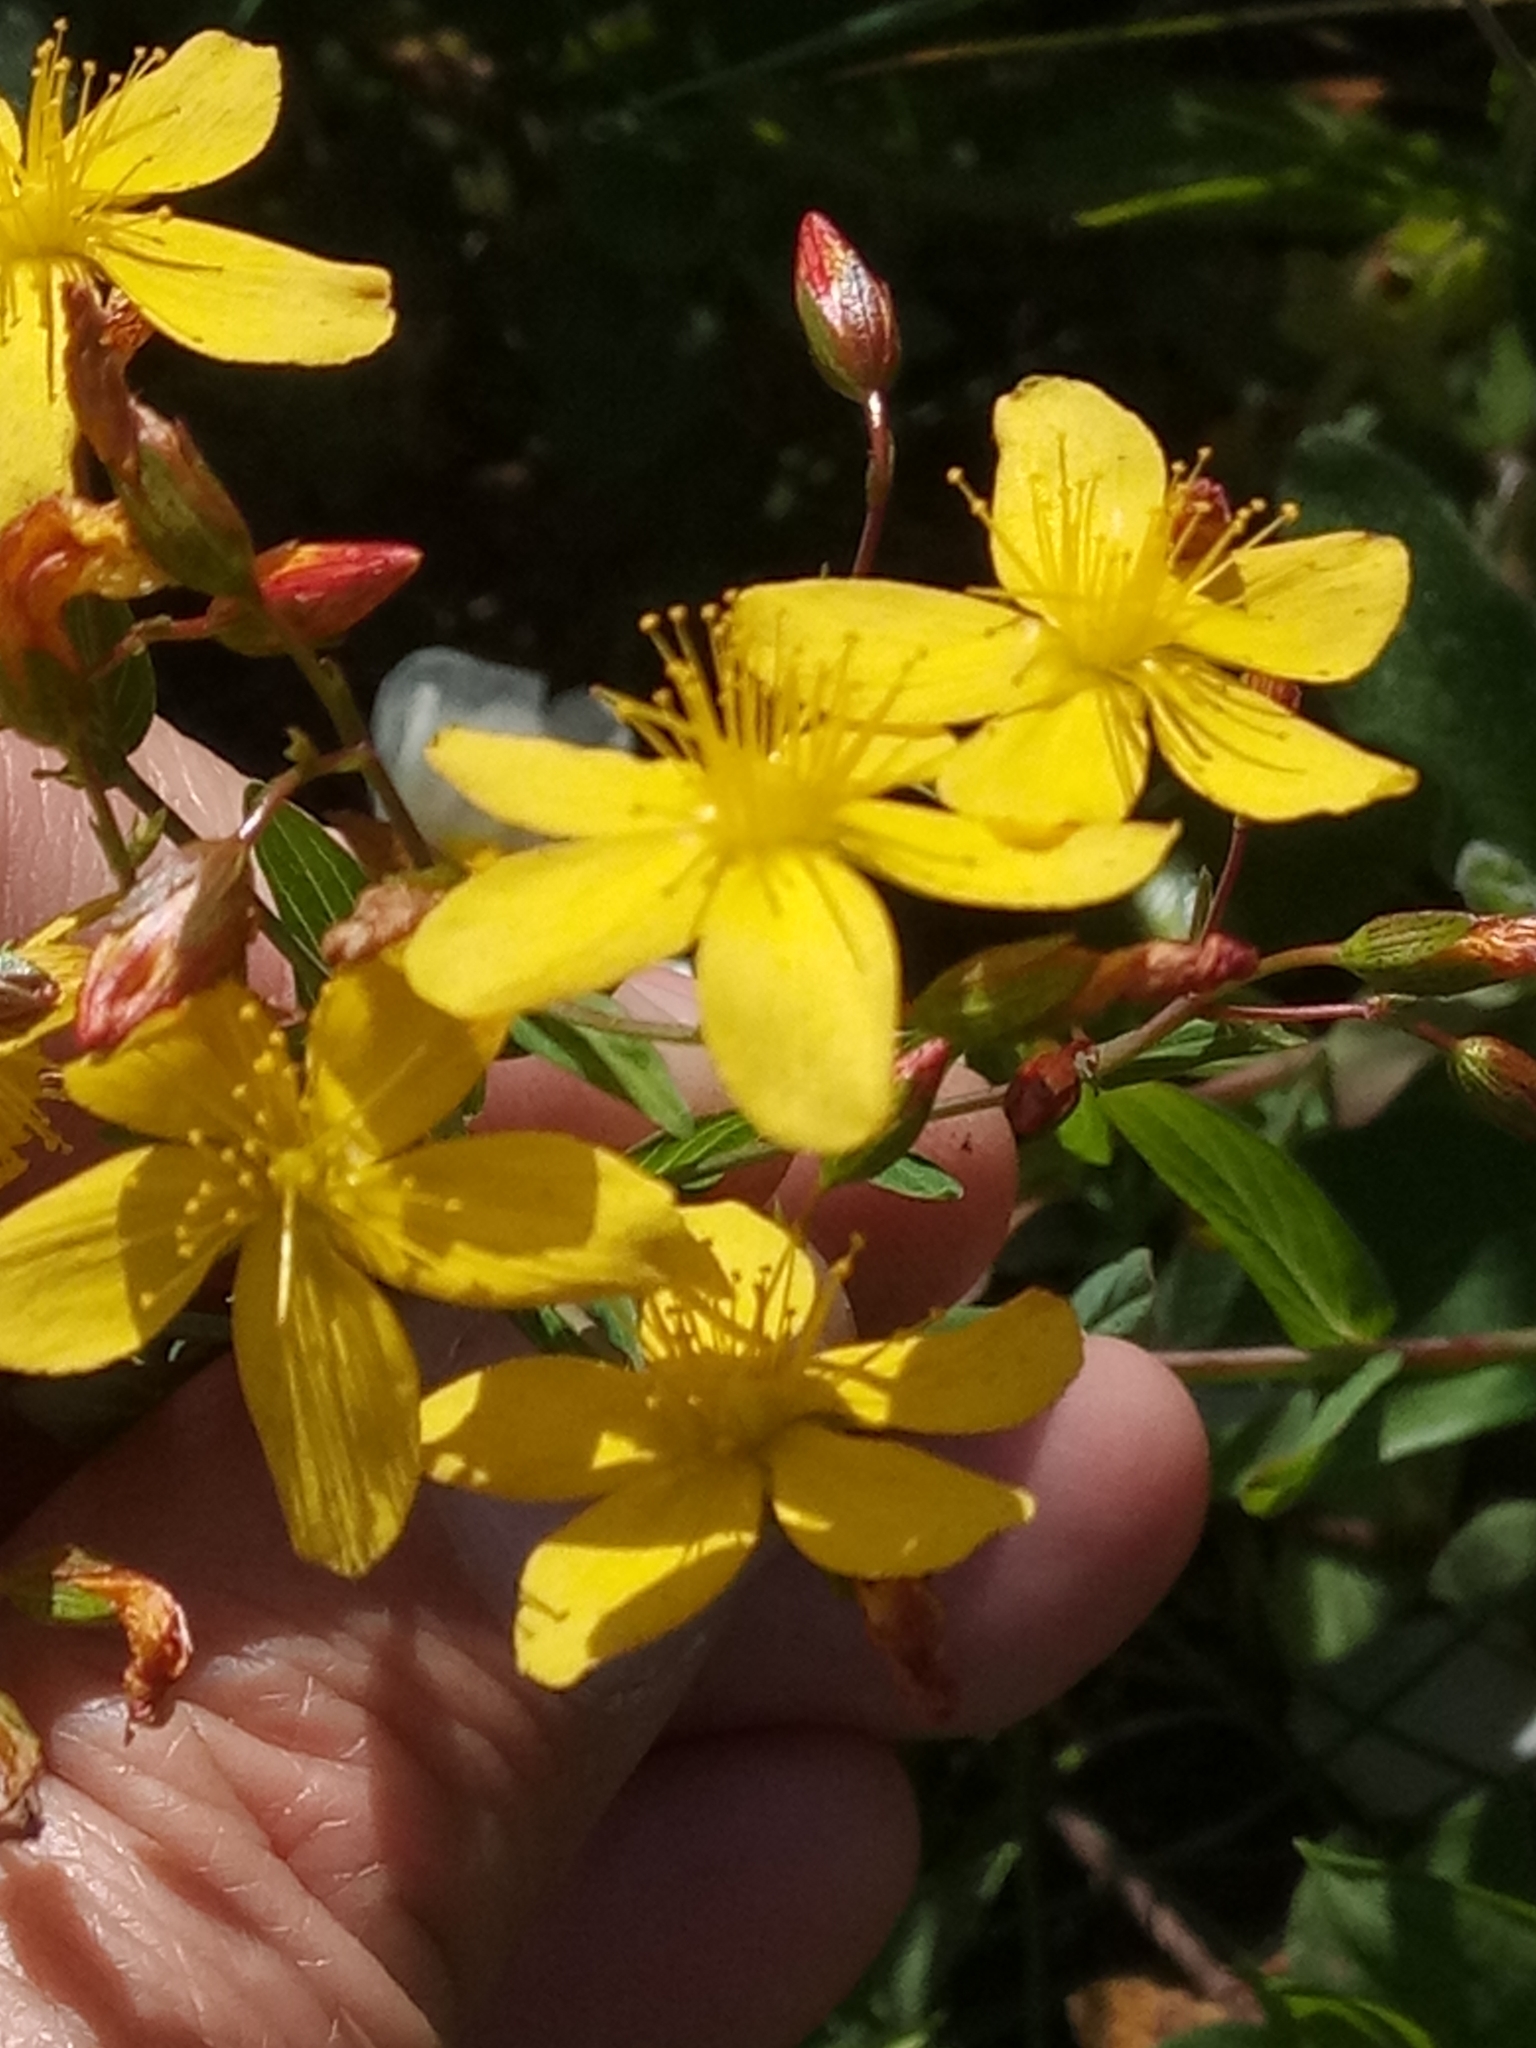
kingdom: Plantae
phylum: Tracheophyta
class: Magnoliopsida
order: Malpighiales
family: Hypericaceae
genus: Hypericum
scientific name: Hypericum australe
